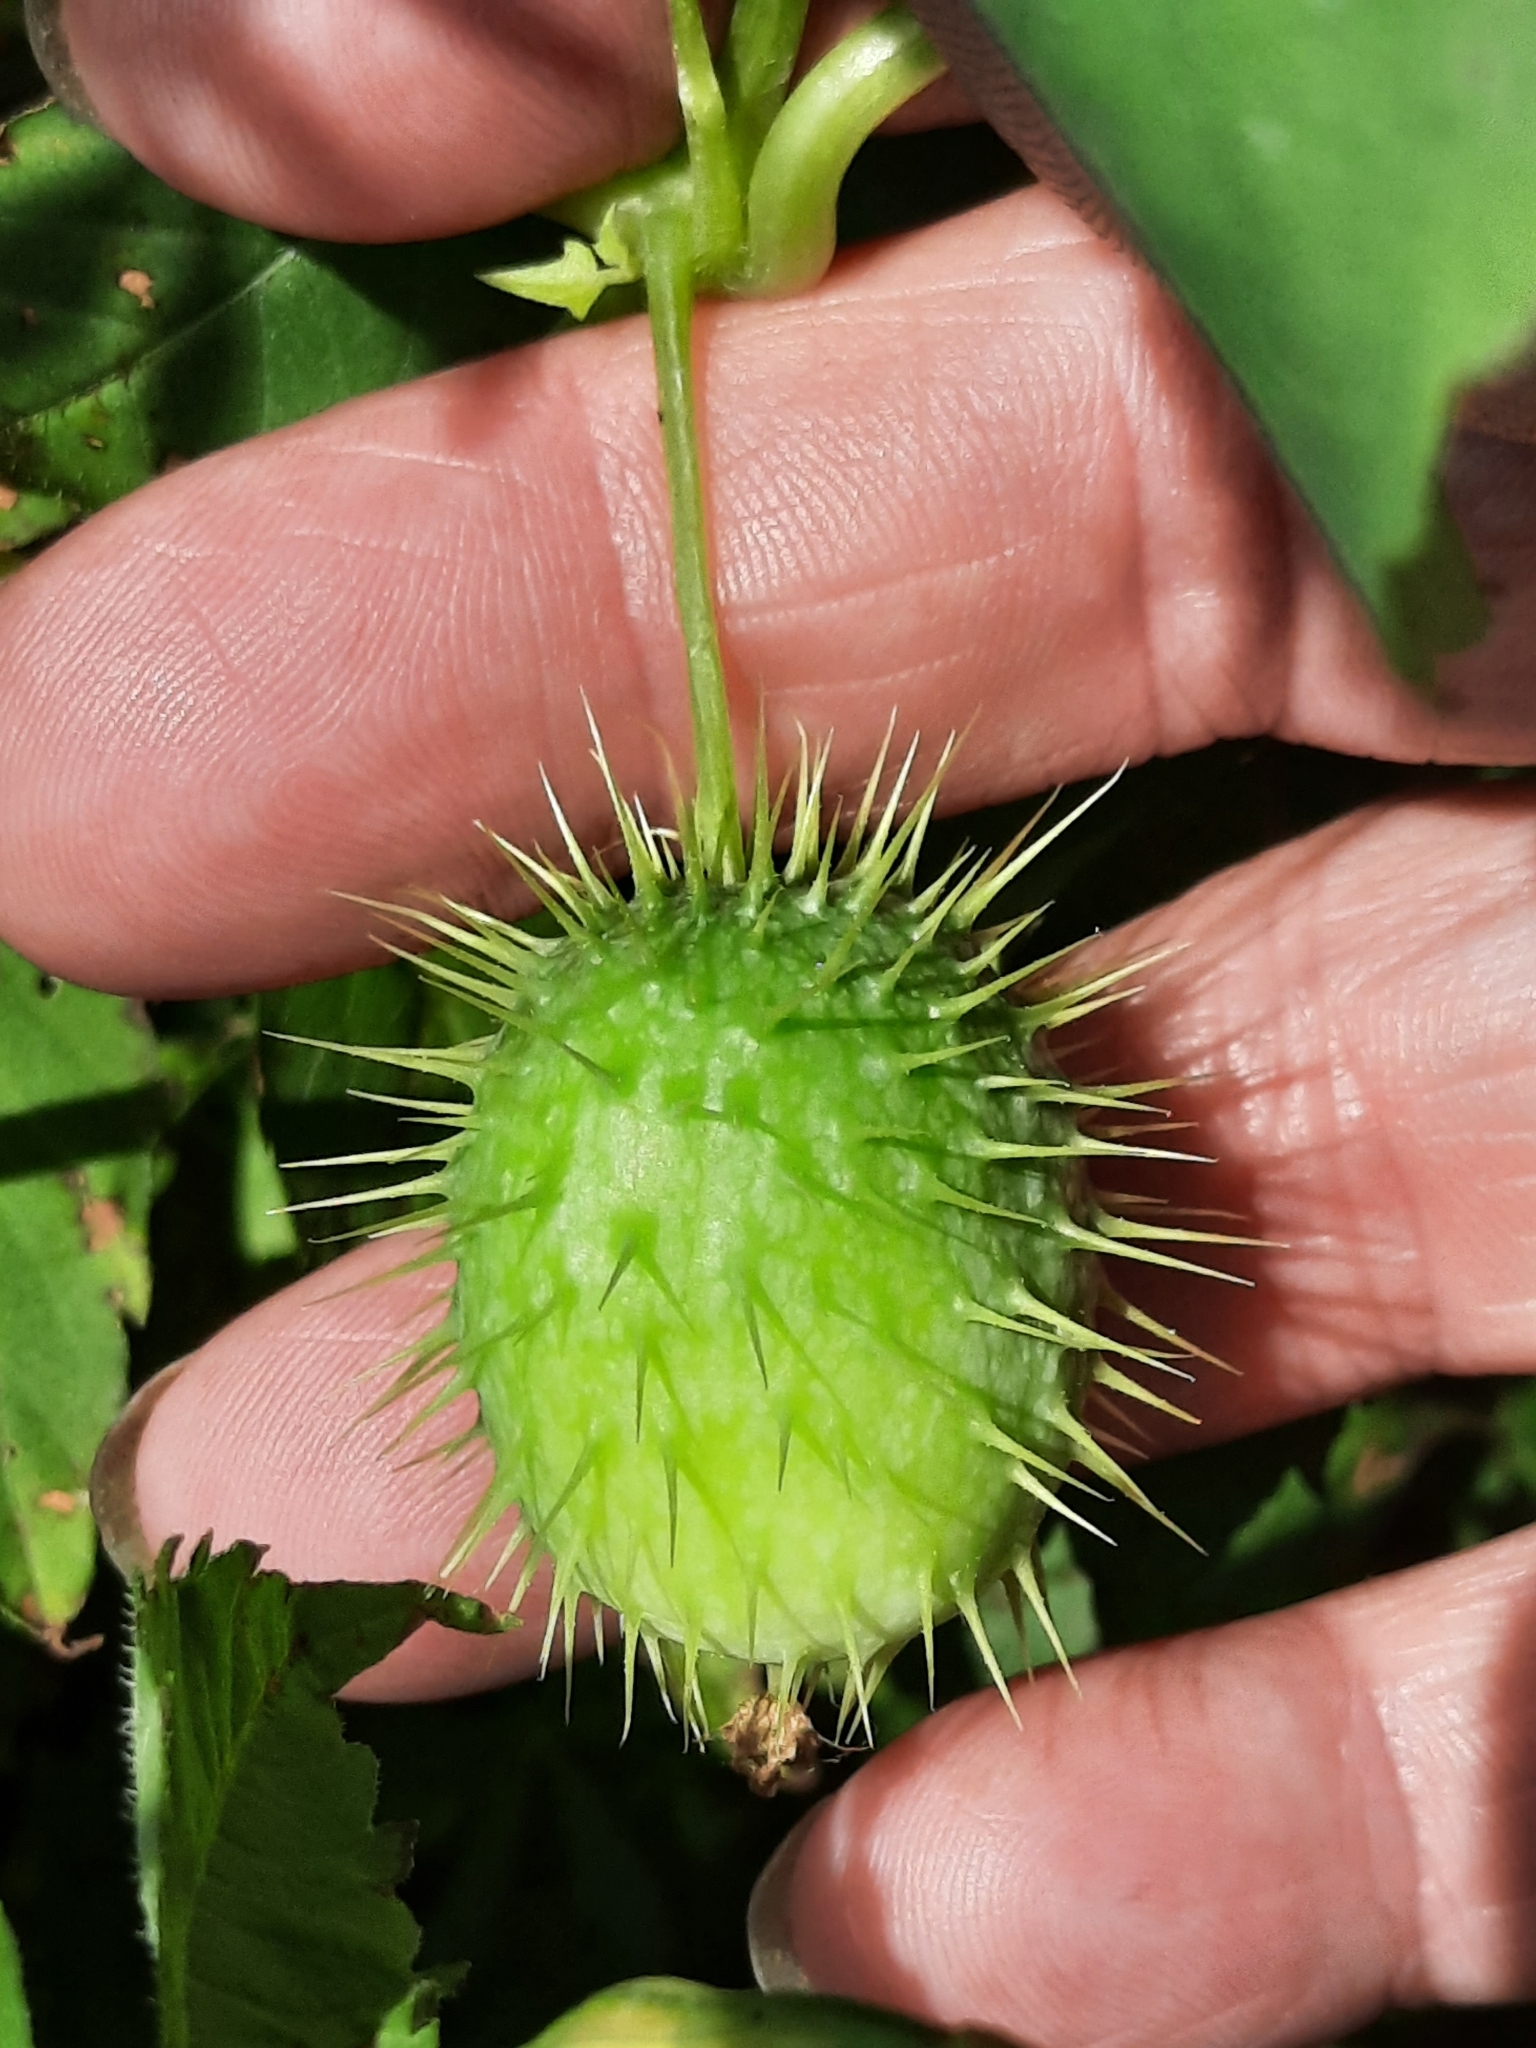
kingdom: Plantae
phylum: Tracheophyta
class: Magnoliopsida
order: Cucurbitales
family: Cucurbitaceae
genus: Echinocystis
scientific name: Echinocystis lobata
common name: Wild cucumber
